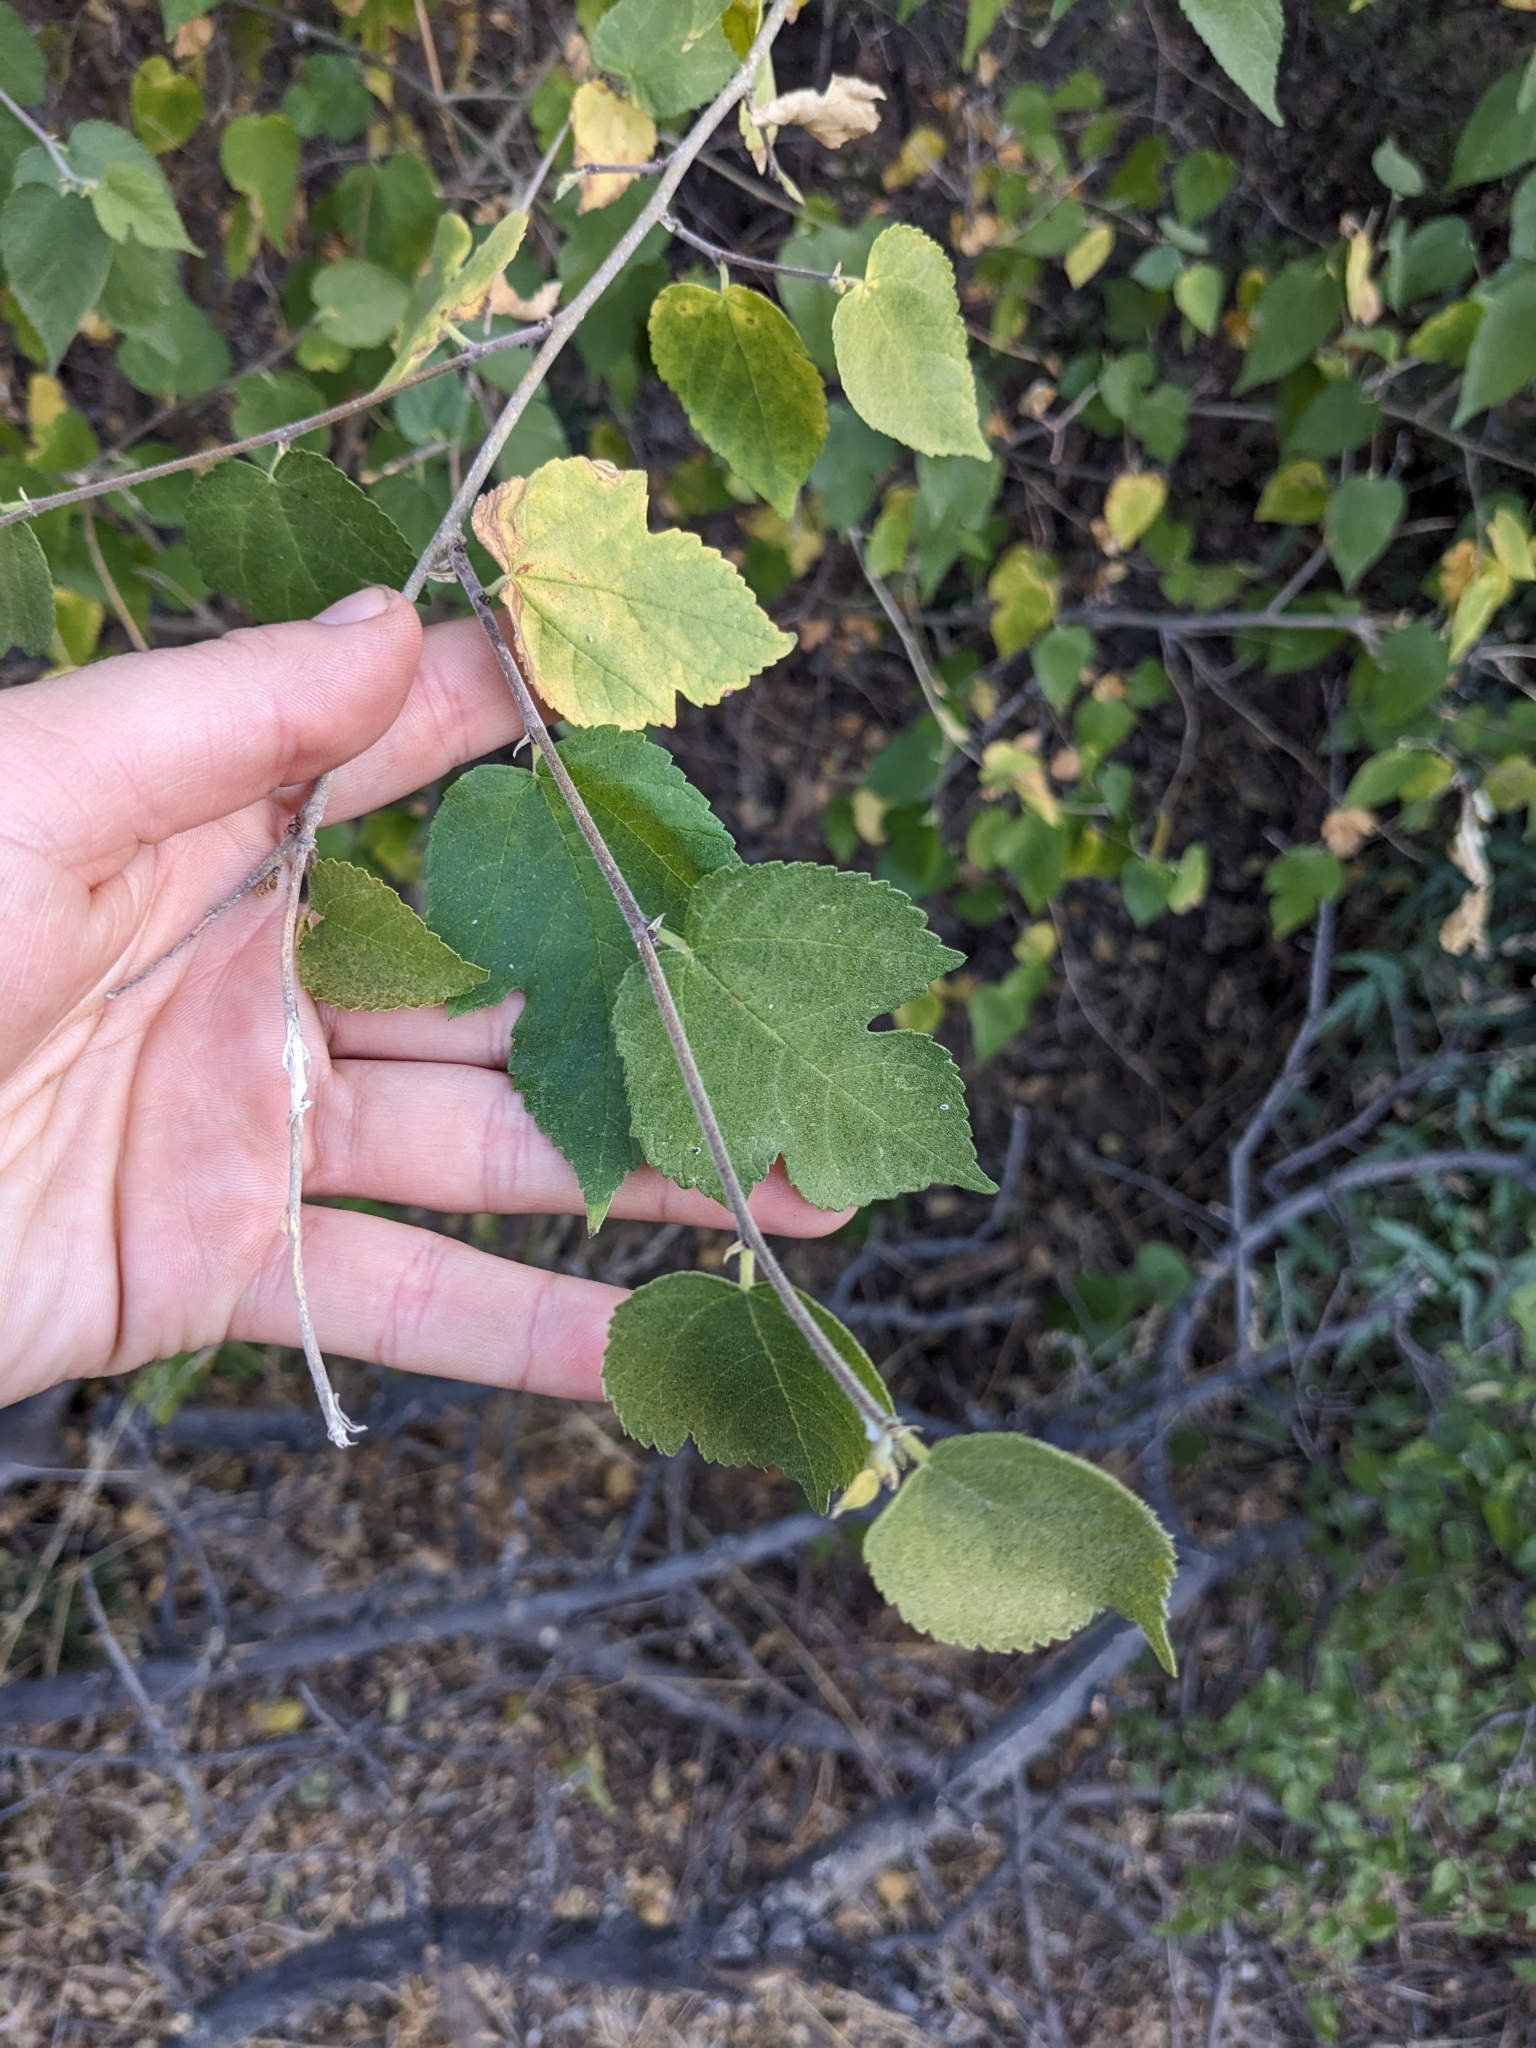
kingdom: Plantae
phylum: Tracheophyta
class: Magnoliopsida
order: Rosales
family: Moraceae
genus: Morus
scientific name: Morus microphylla
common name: Mexican mulberry
